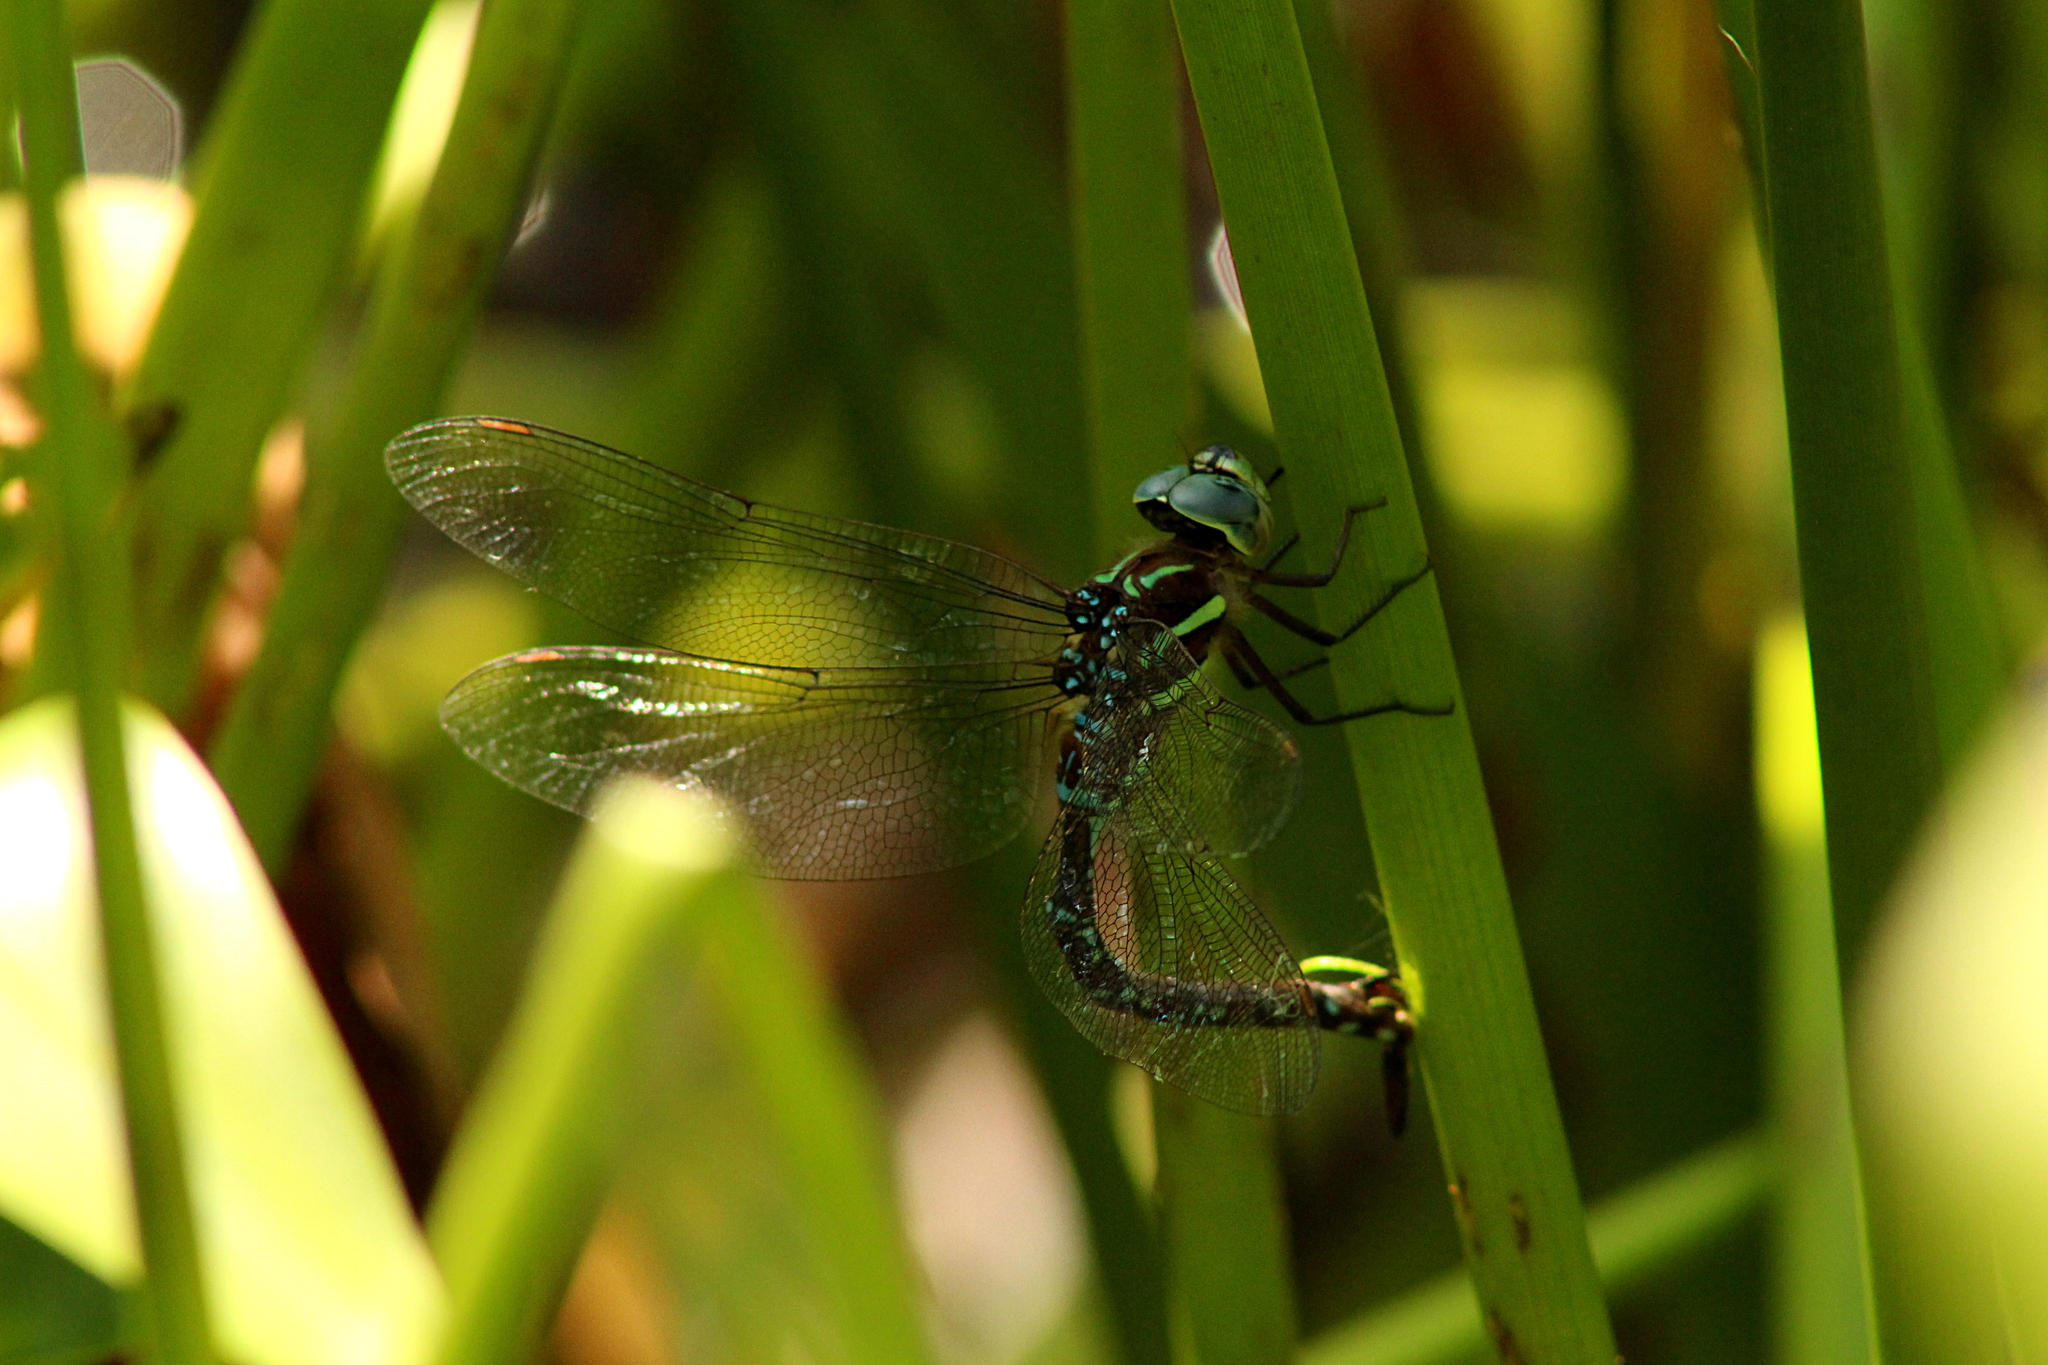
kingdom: Animalia
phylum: Arthropoda
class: Insecta
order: Odonata
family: Aeshnidae
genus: Aeshna
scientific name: Aeshna tuberculifera
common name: Aeschne à tubercules
